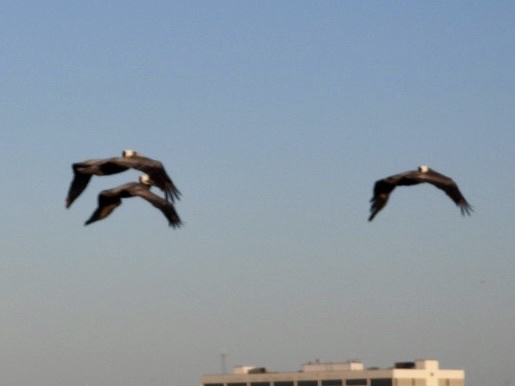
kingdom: Animalia
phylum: Chordata
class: Aves
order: Pelecaniformes
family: Pelecanidae
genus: Pelecanus
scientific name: Pelecanus occidentalis
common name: Brown pelican
